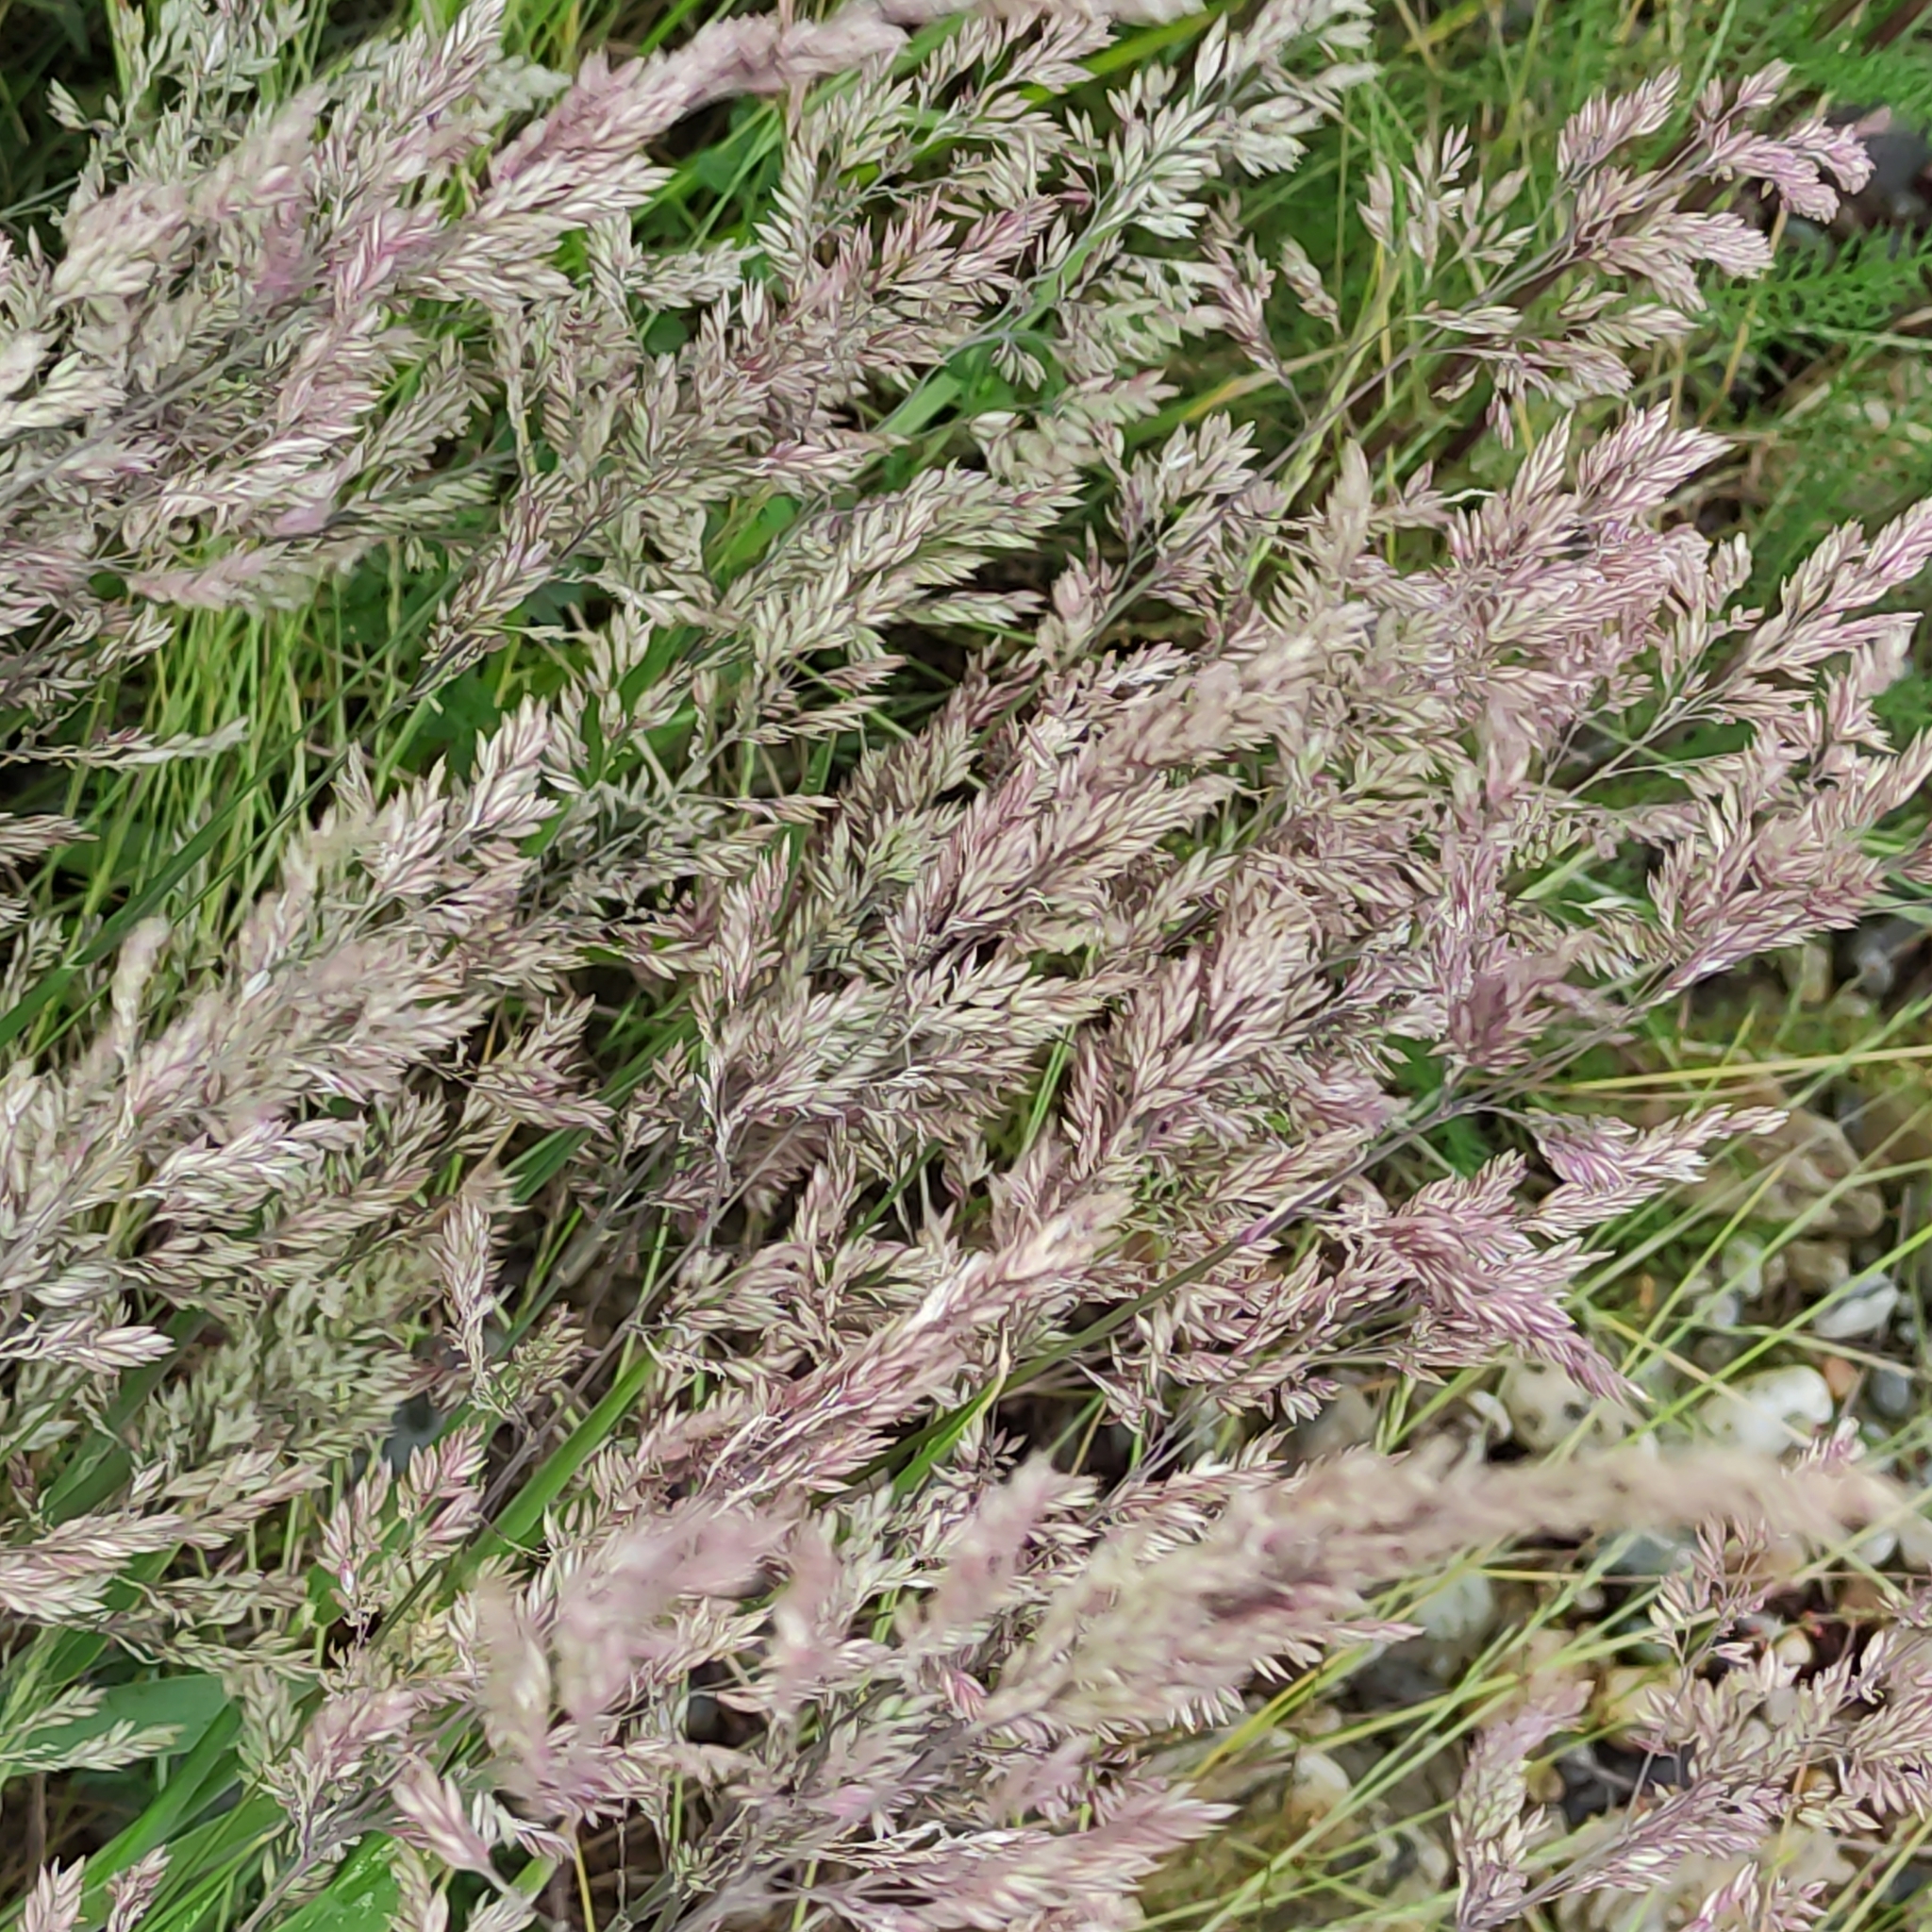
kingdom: Plantae
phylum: Tracheophyta
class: Liliopsida
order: Poales
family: Poaceae
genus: Holcus
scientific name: Holcus lanatus
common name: Yorkshire-fog
